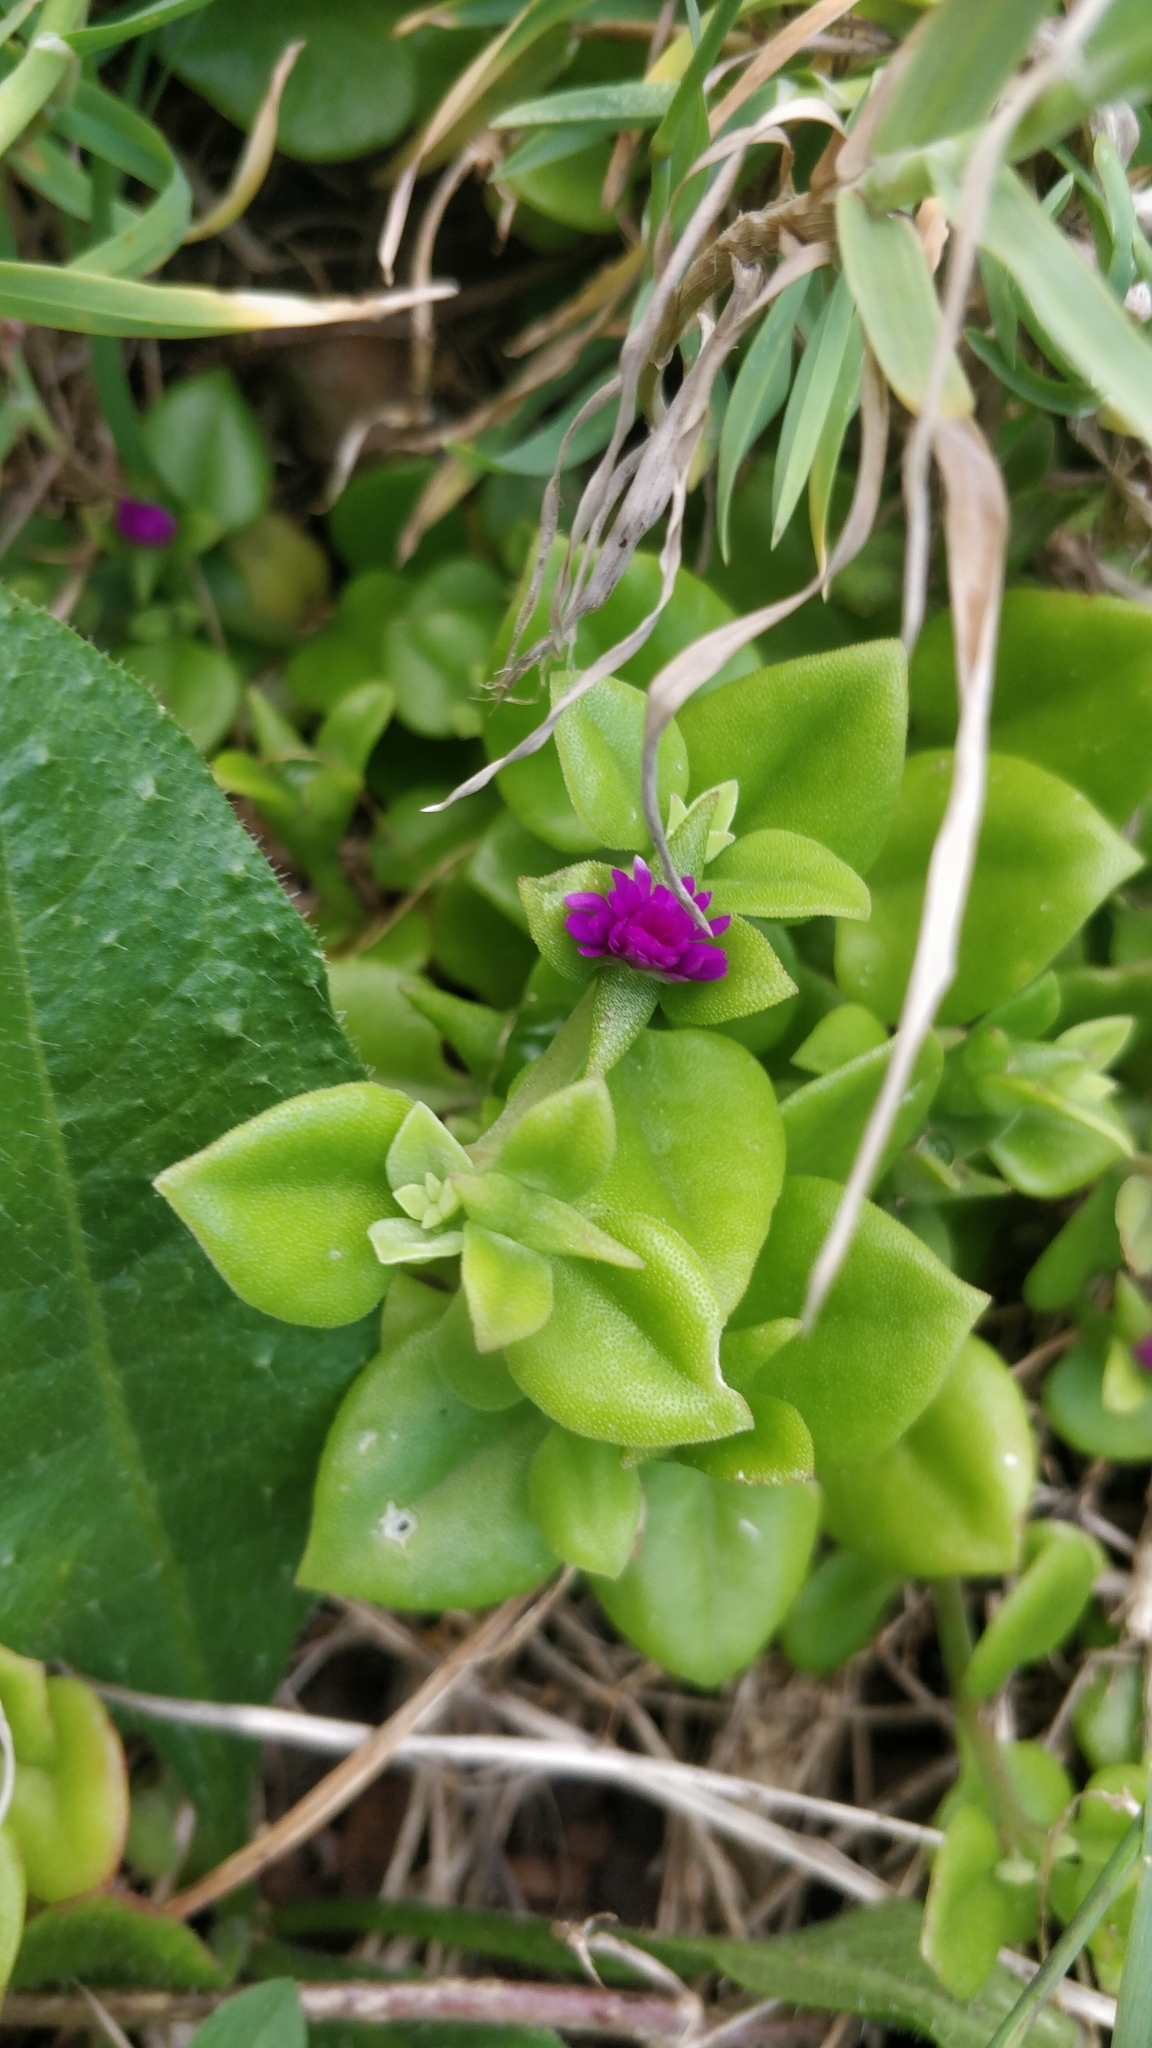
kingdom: Plantae
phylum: Tracheophyta
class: Magnoliopsida
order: Caryophyllales
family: Aizoaceae
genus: Mesembryanthemum
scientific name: Mesembryanthemum cordifolium
